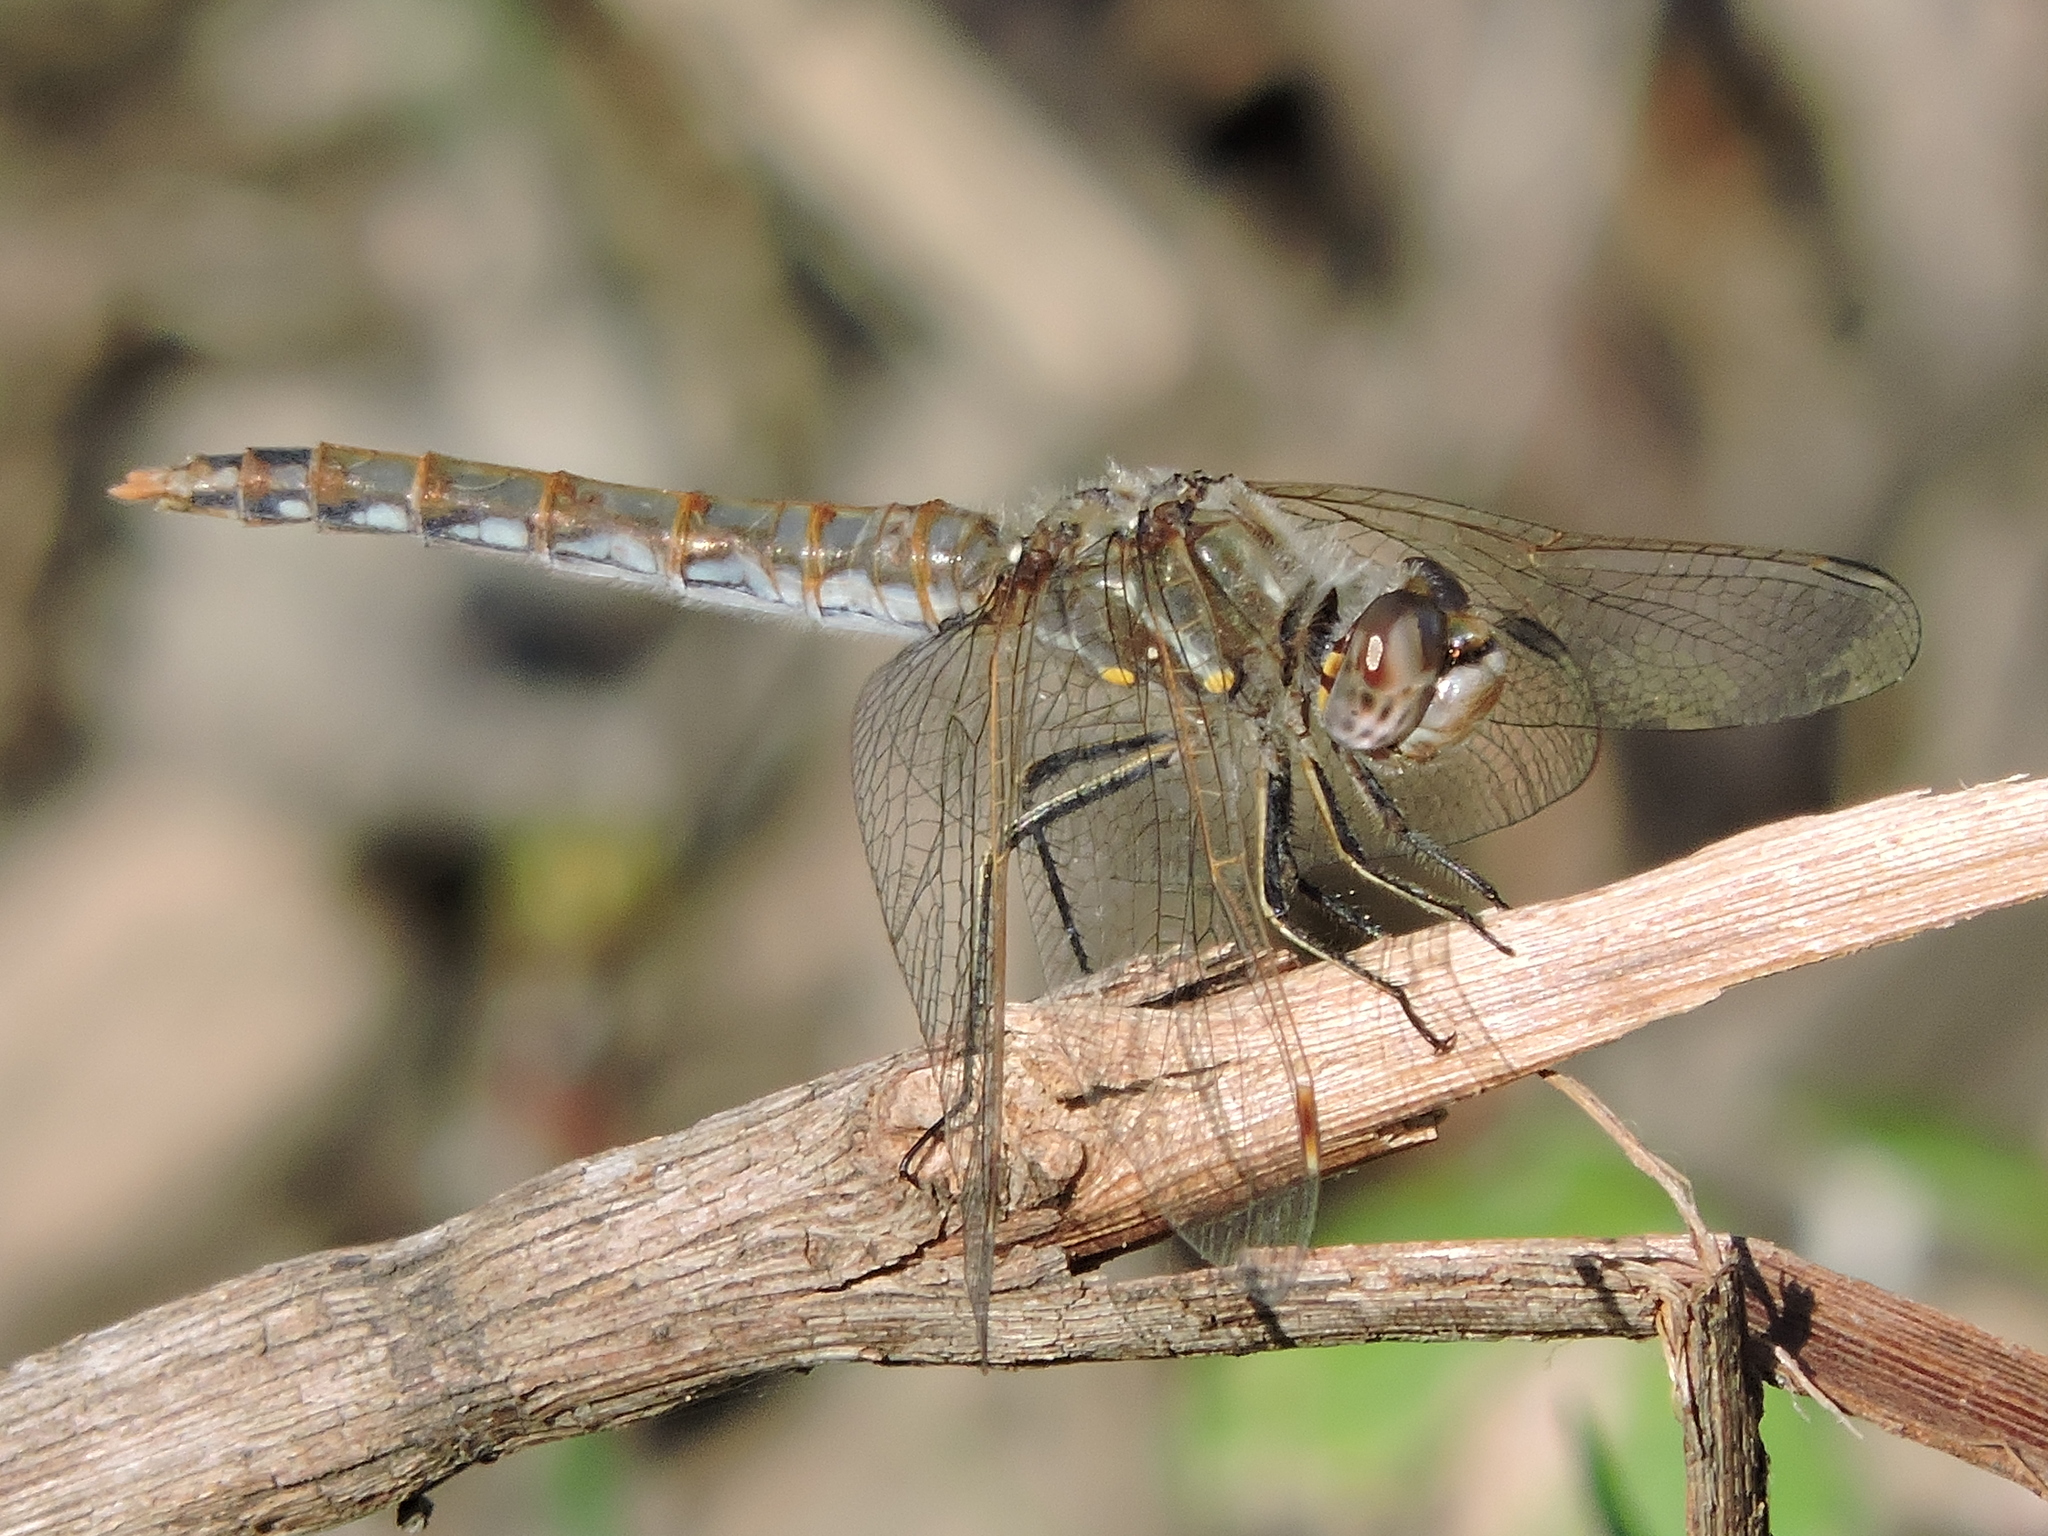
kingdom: Animalia
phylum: Arthropoda
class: Insecta
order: Odonata
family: Libellulidae
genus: Sympetrum
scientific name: Sympetrum corruptum
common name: Variegated meadowhawk
